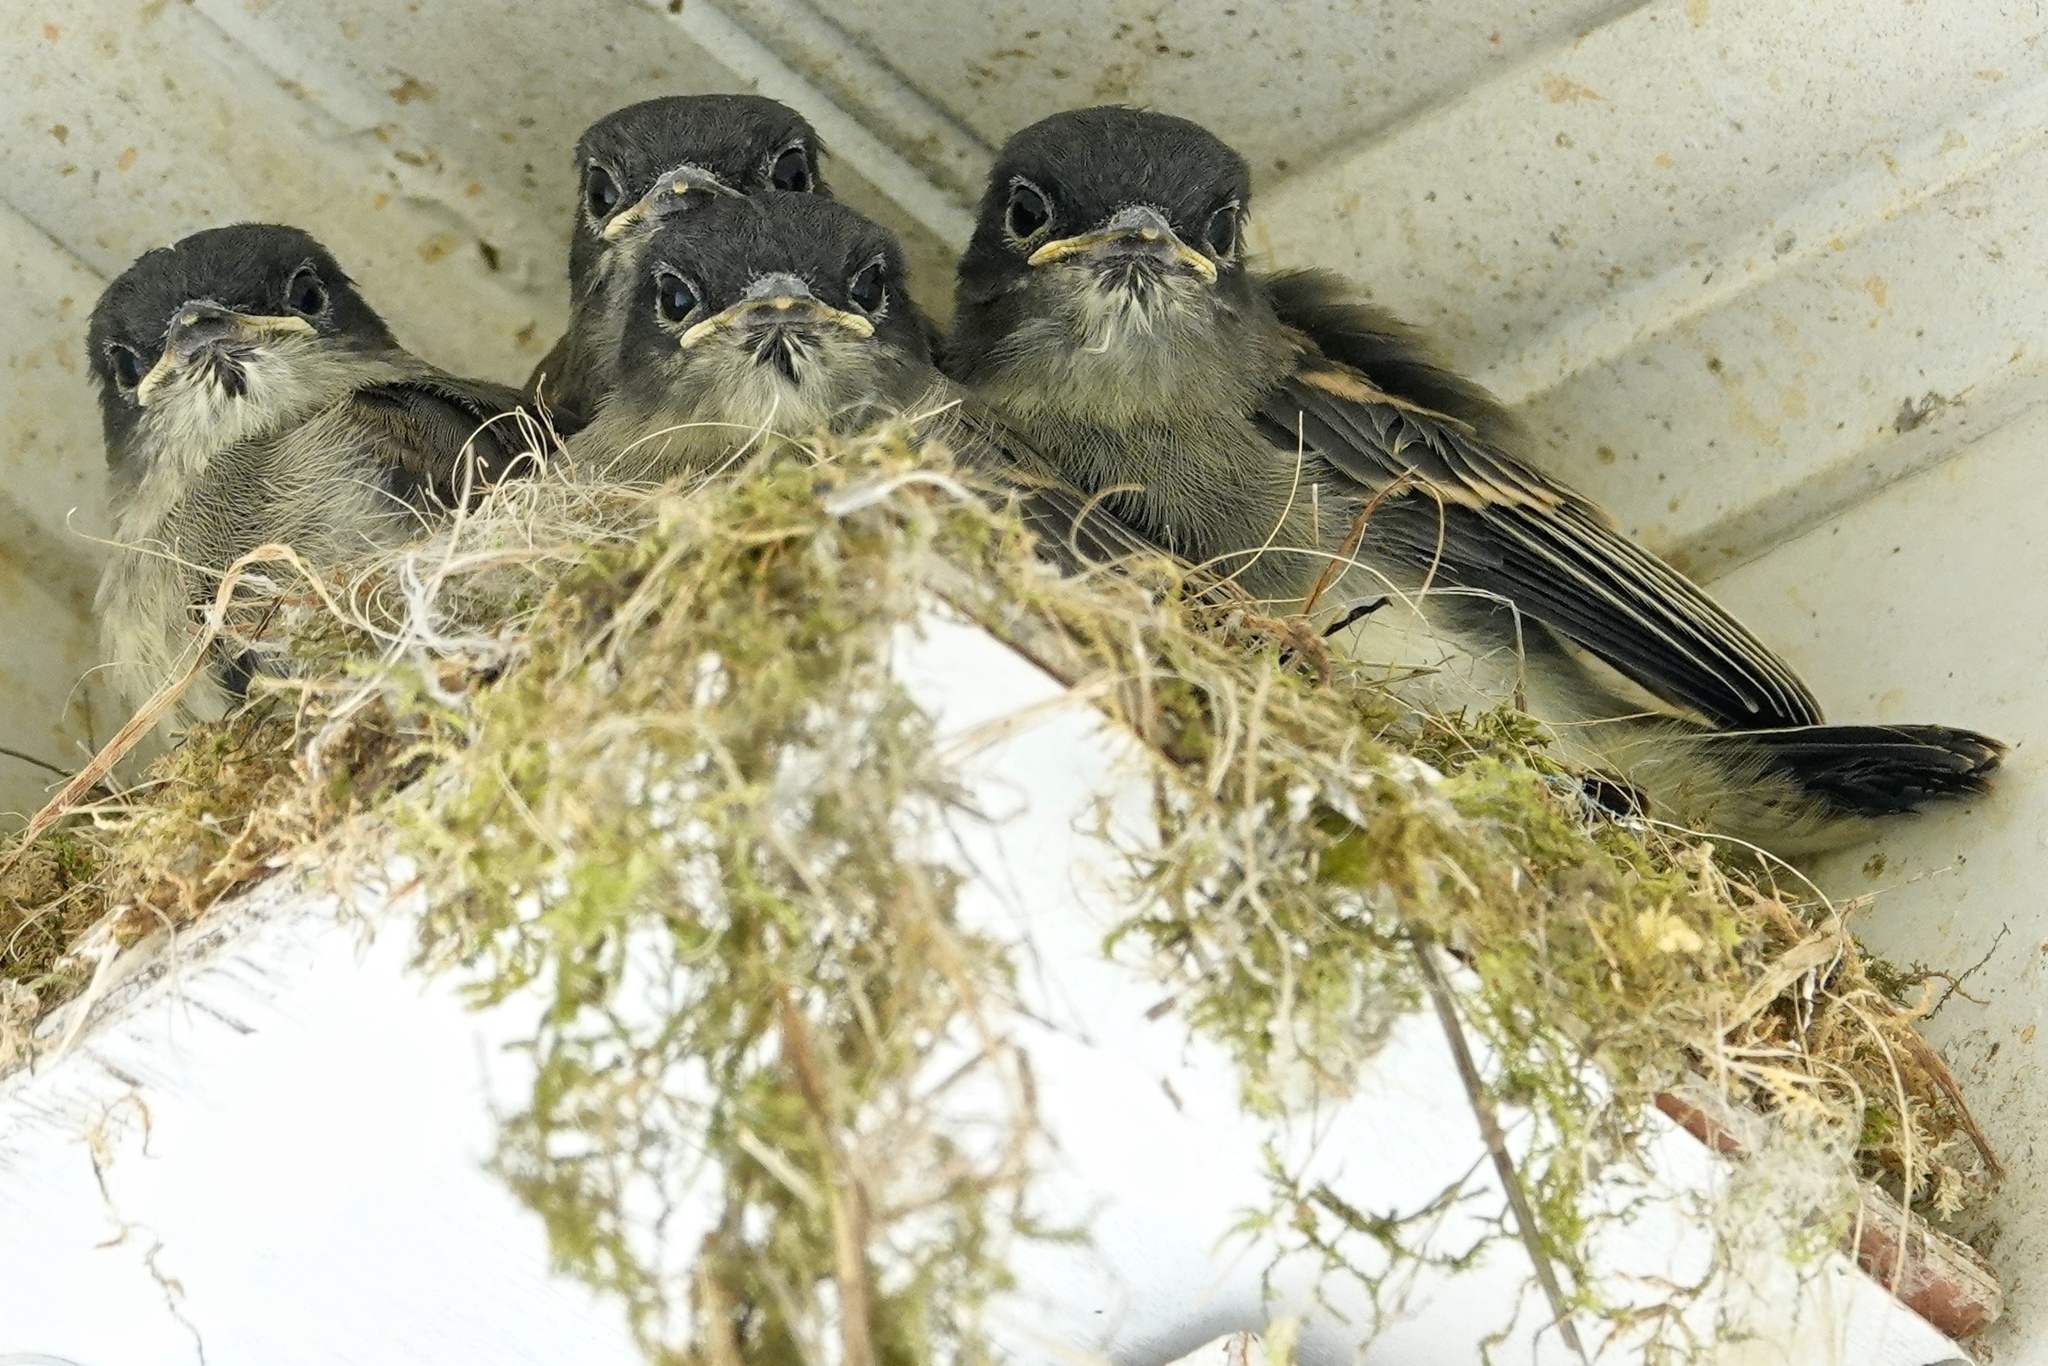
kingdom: Animalia
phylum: Chordata
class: Aves
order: Passeriformes
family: Tyrannidae
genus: Sayornis
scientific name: Sayornis phoebe
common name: Eastern phoebe
